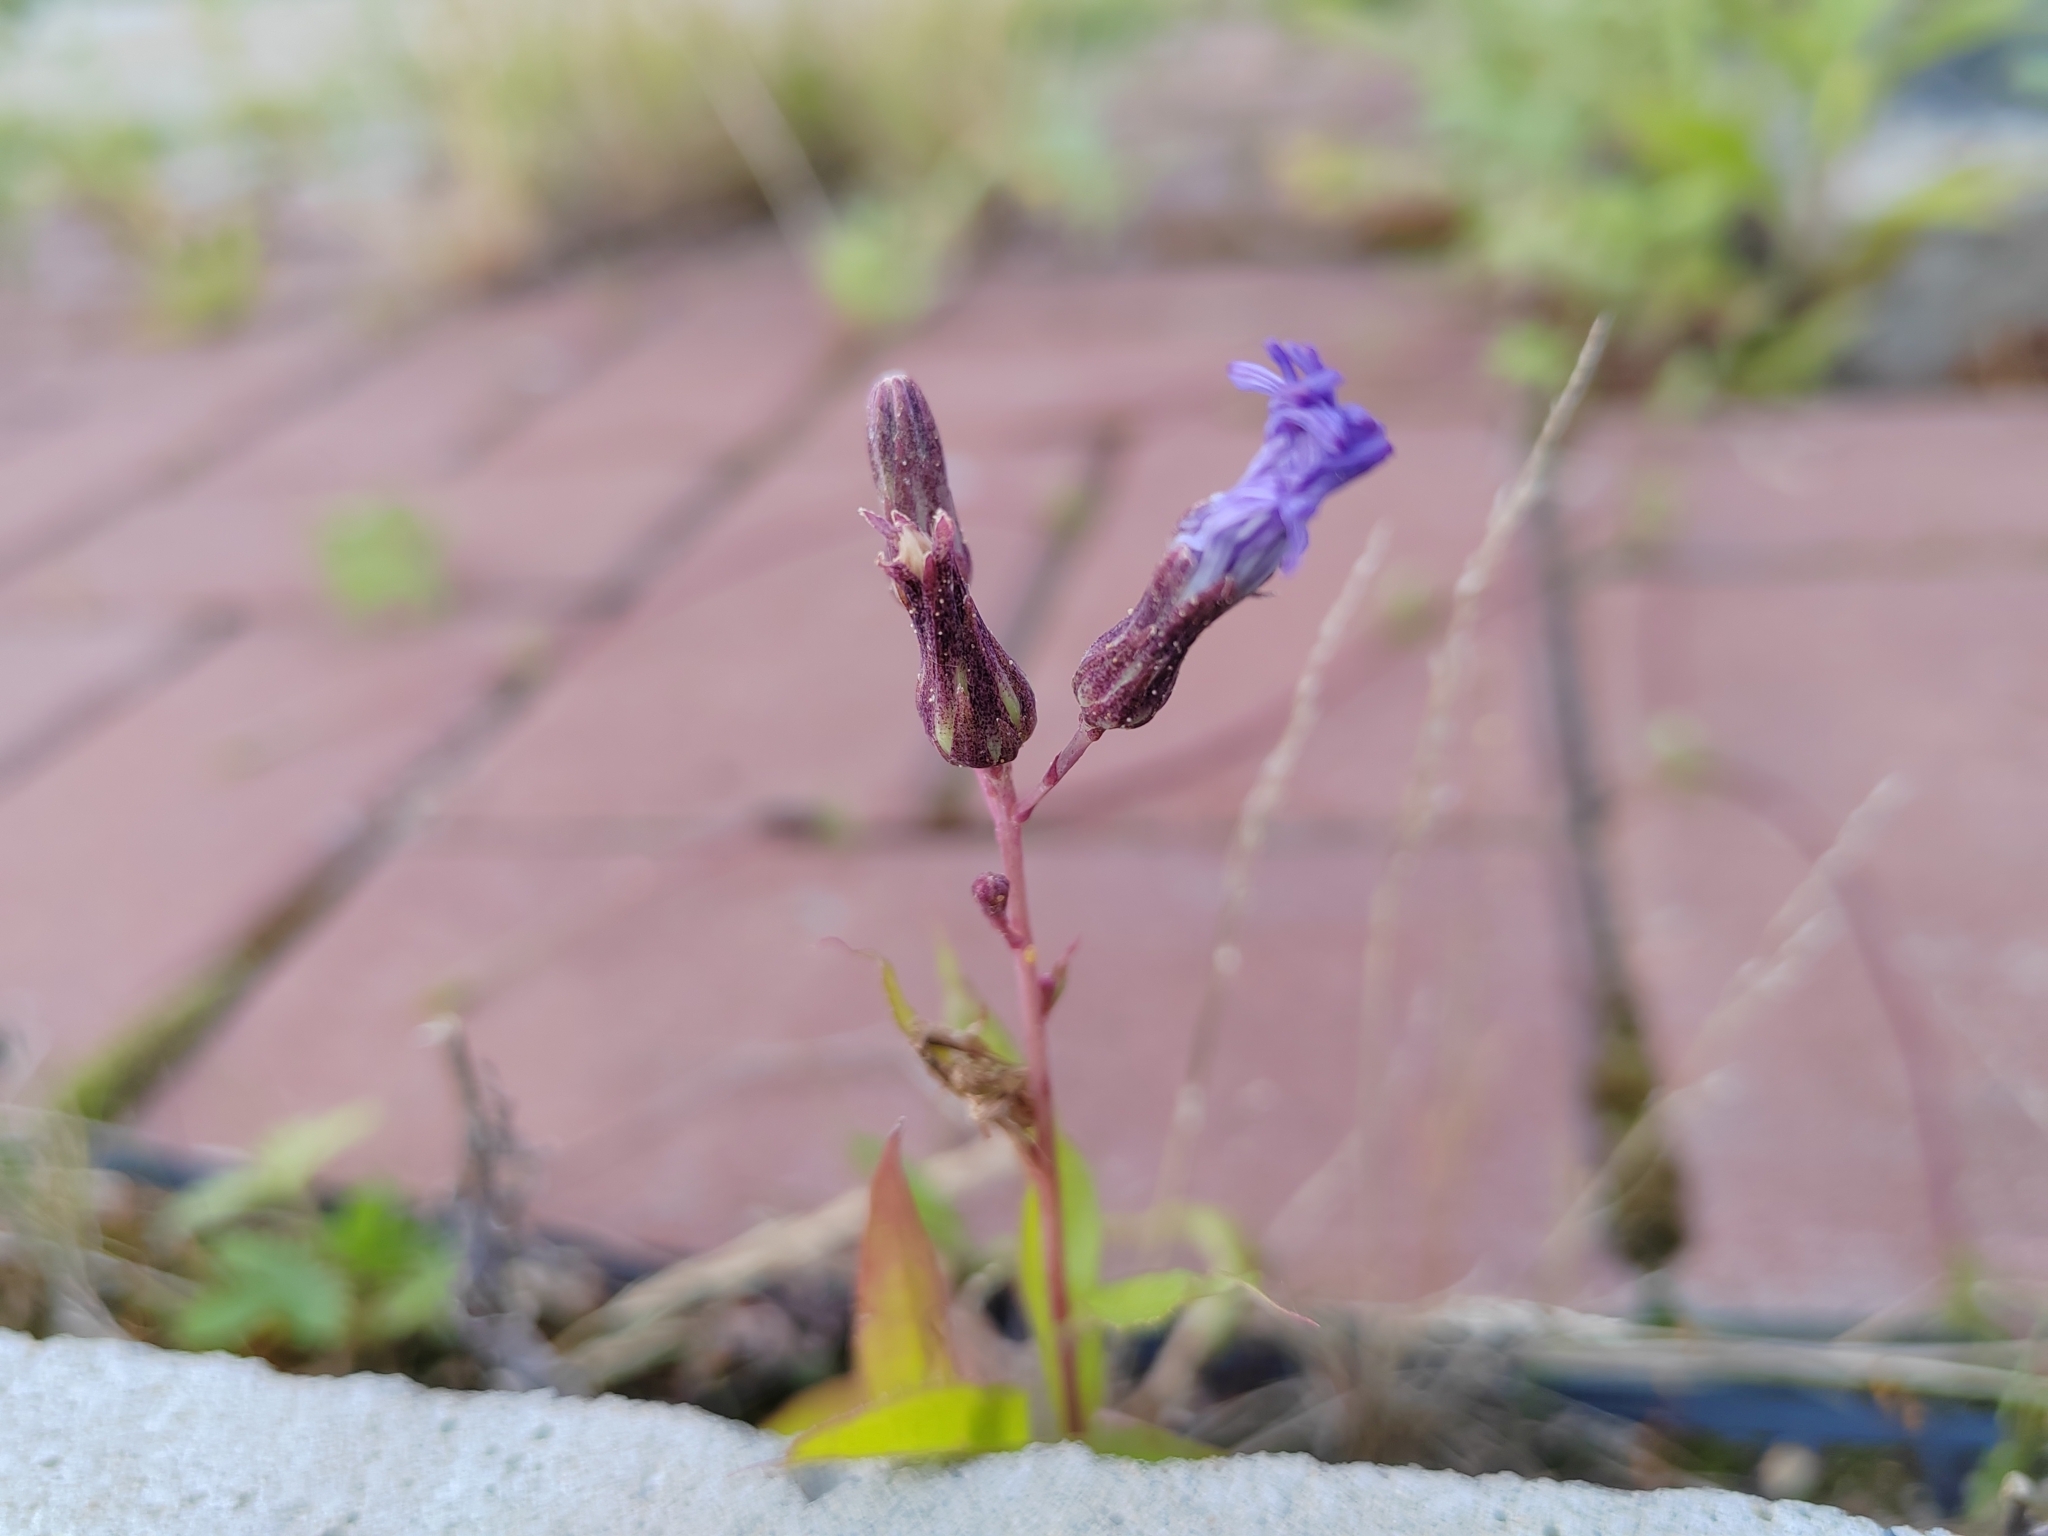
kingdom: Plantae
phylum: Tracheophyta
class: Magnoliopsida
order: Asterales
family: Asteraceae
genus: Lactuca
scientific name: Lactuca sibirica
